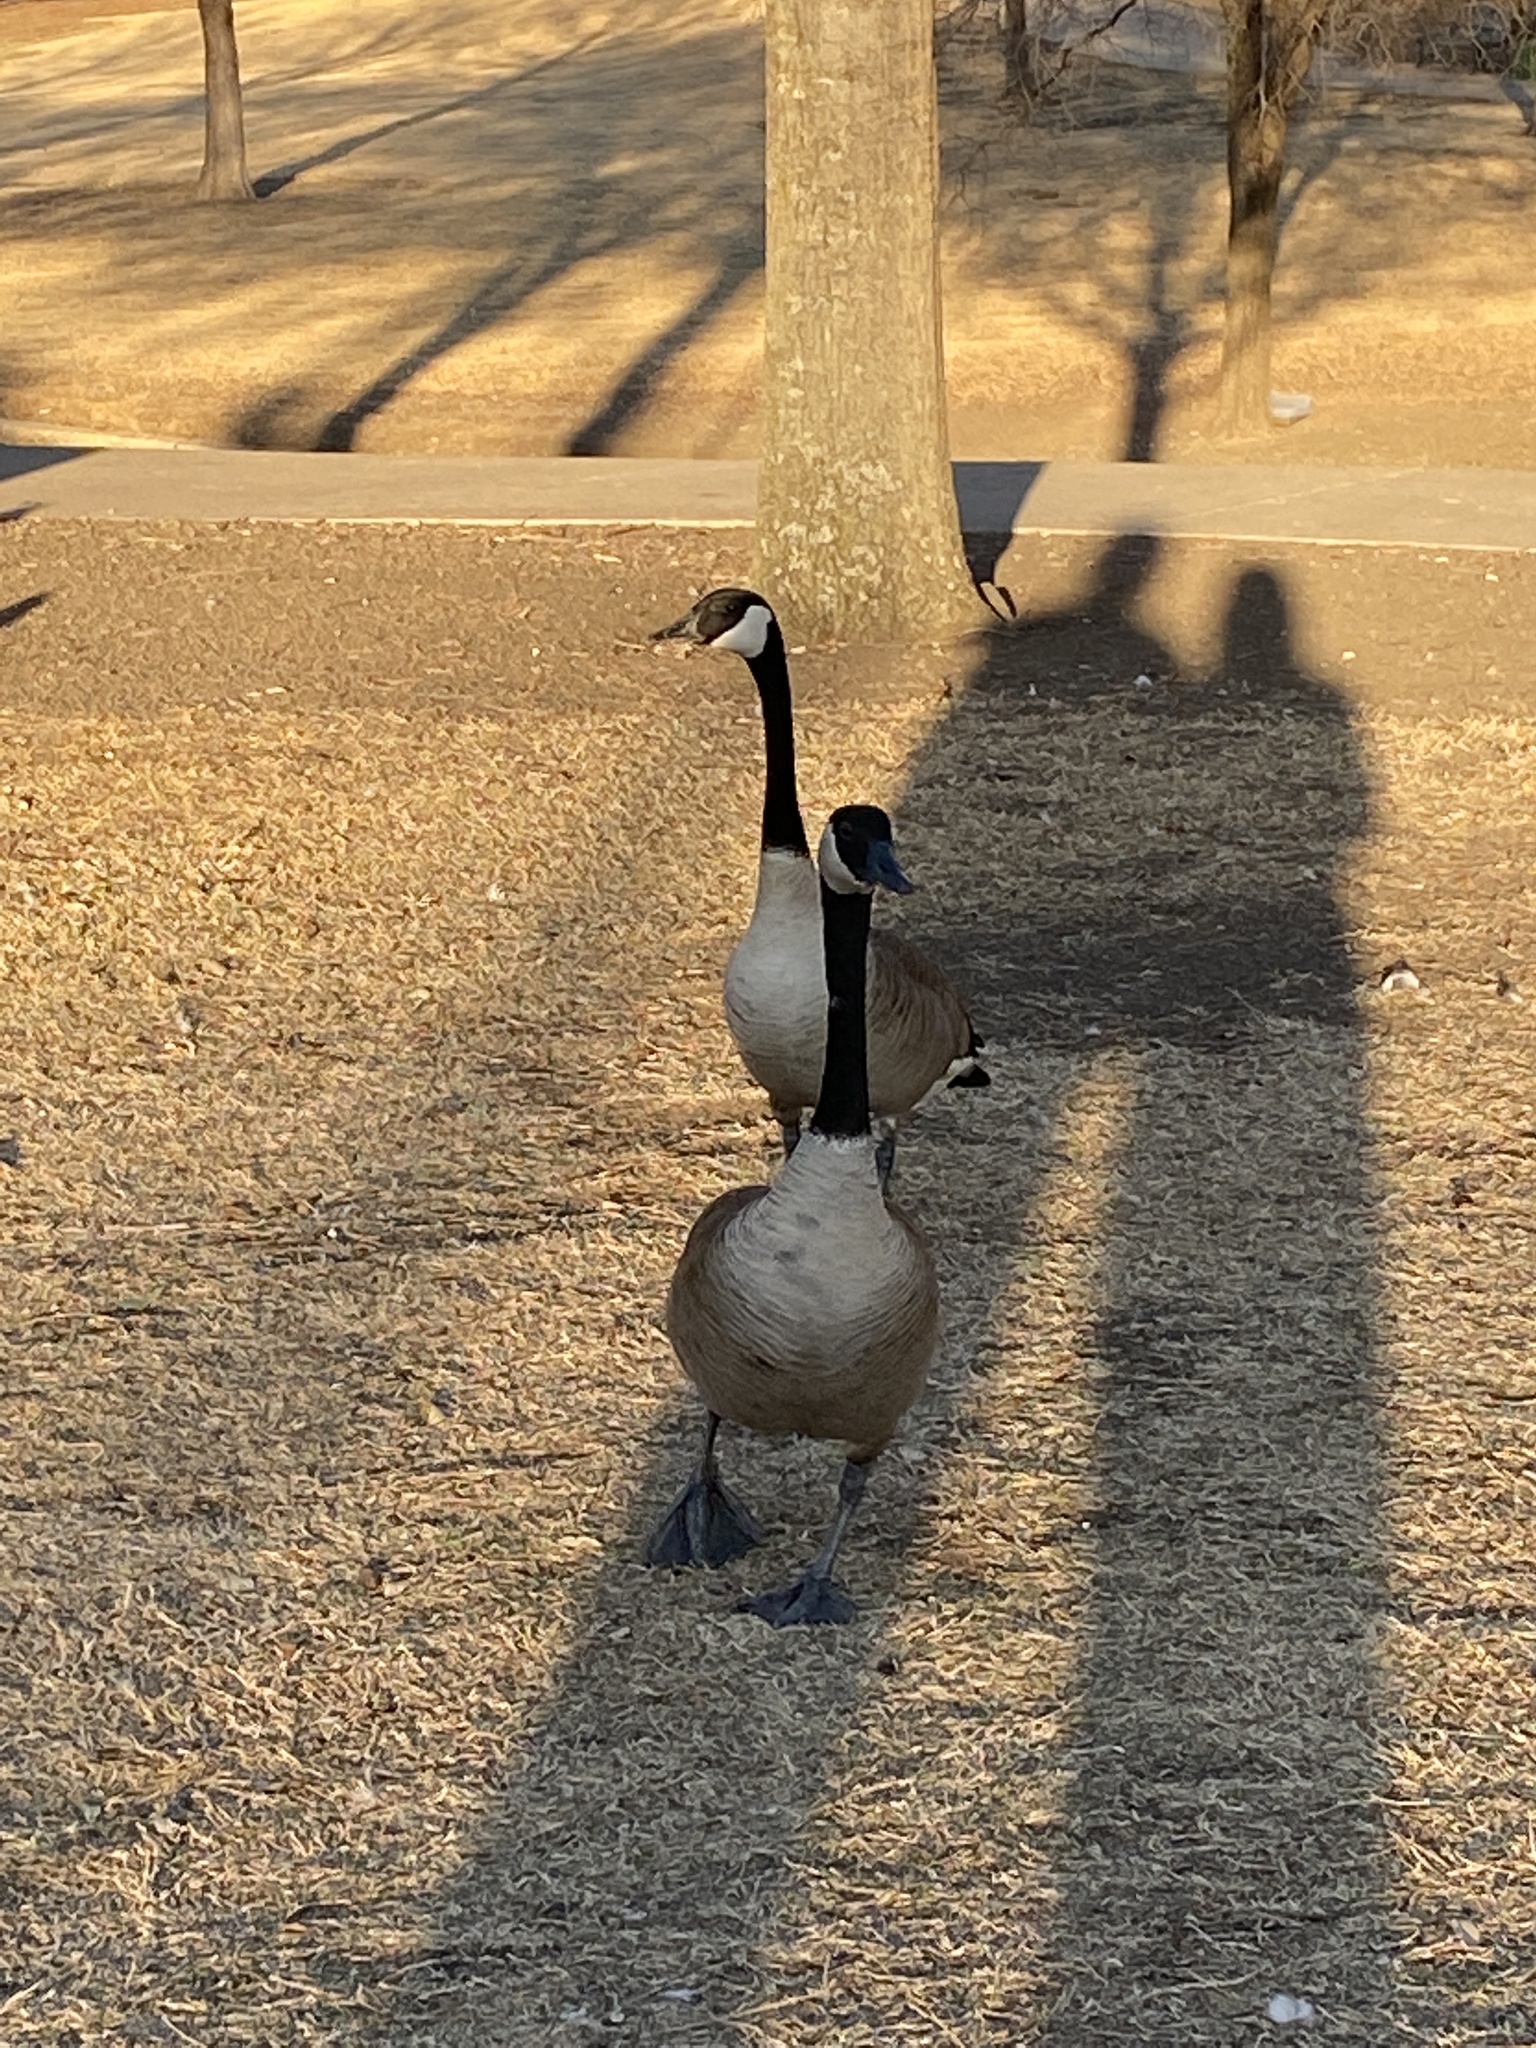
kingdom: Animalia
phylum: Chordata
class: Aves
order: Anseriformes
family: Anatidae
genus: Branta
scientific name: Branta canadensis
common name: Canada goose
